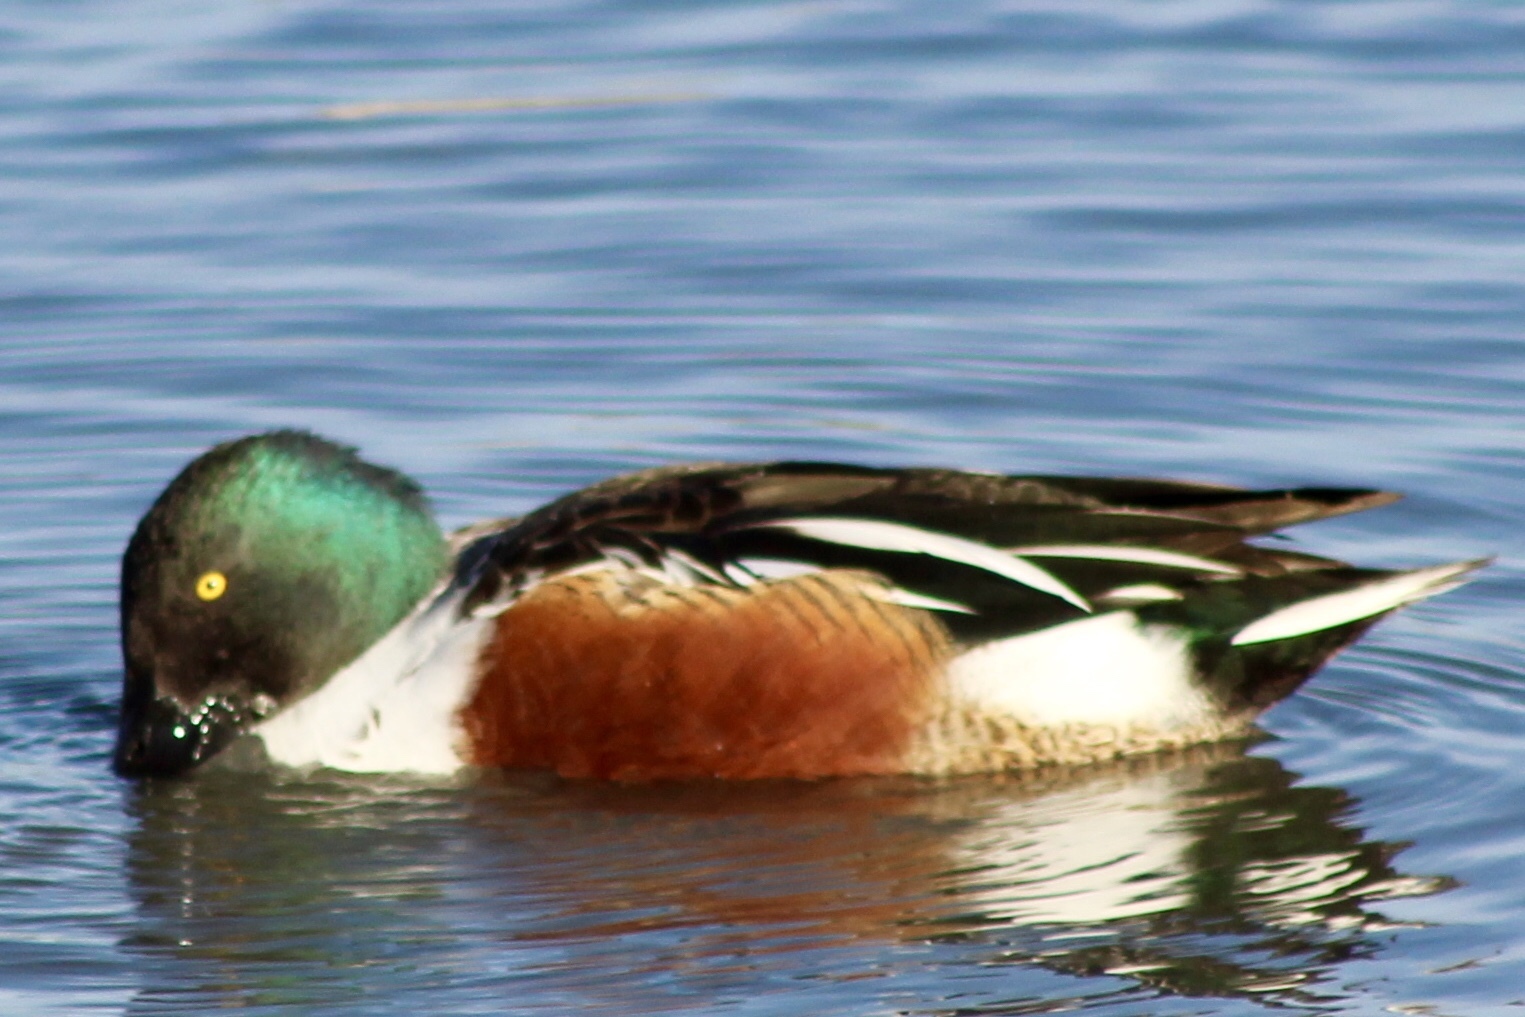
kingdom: Animalia
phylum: Chordata
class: Aves
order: Anseriformes
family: Anatidae
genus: Spatula
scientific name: Spatula clypeata
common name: Northern shoveler
